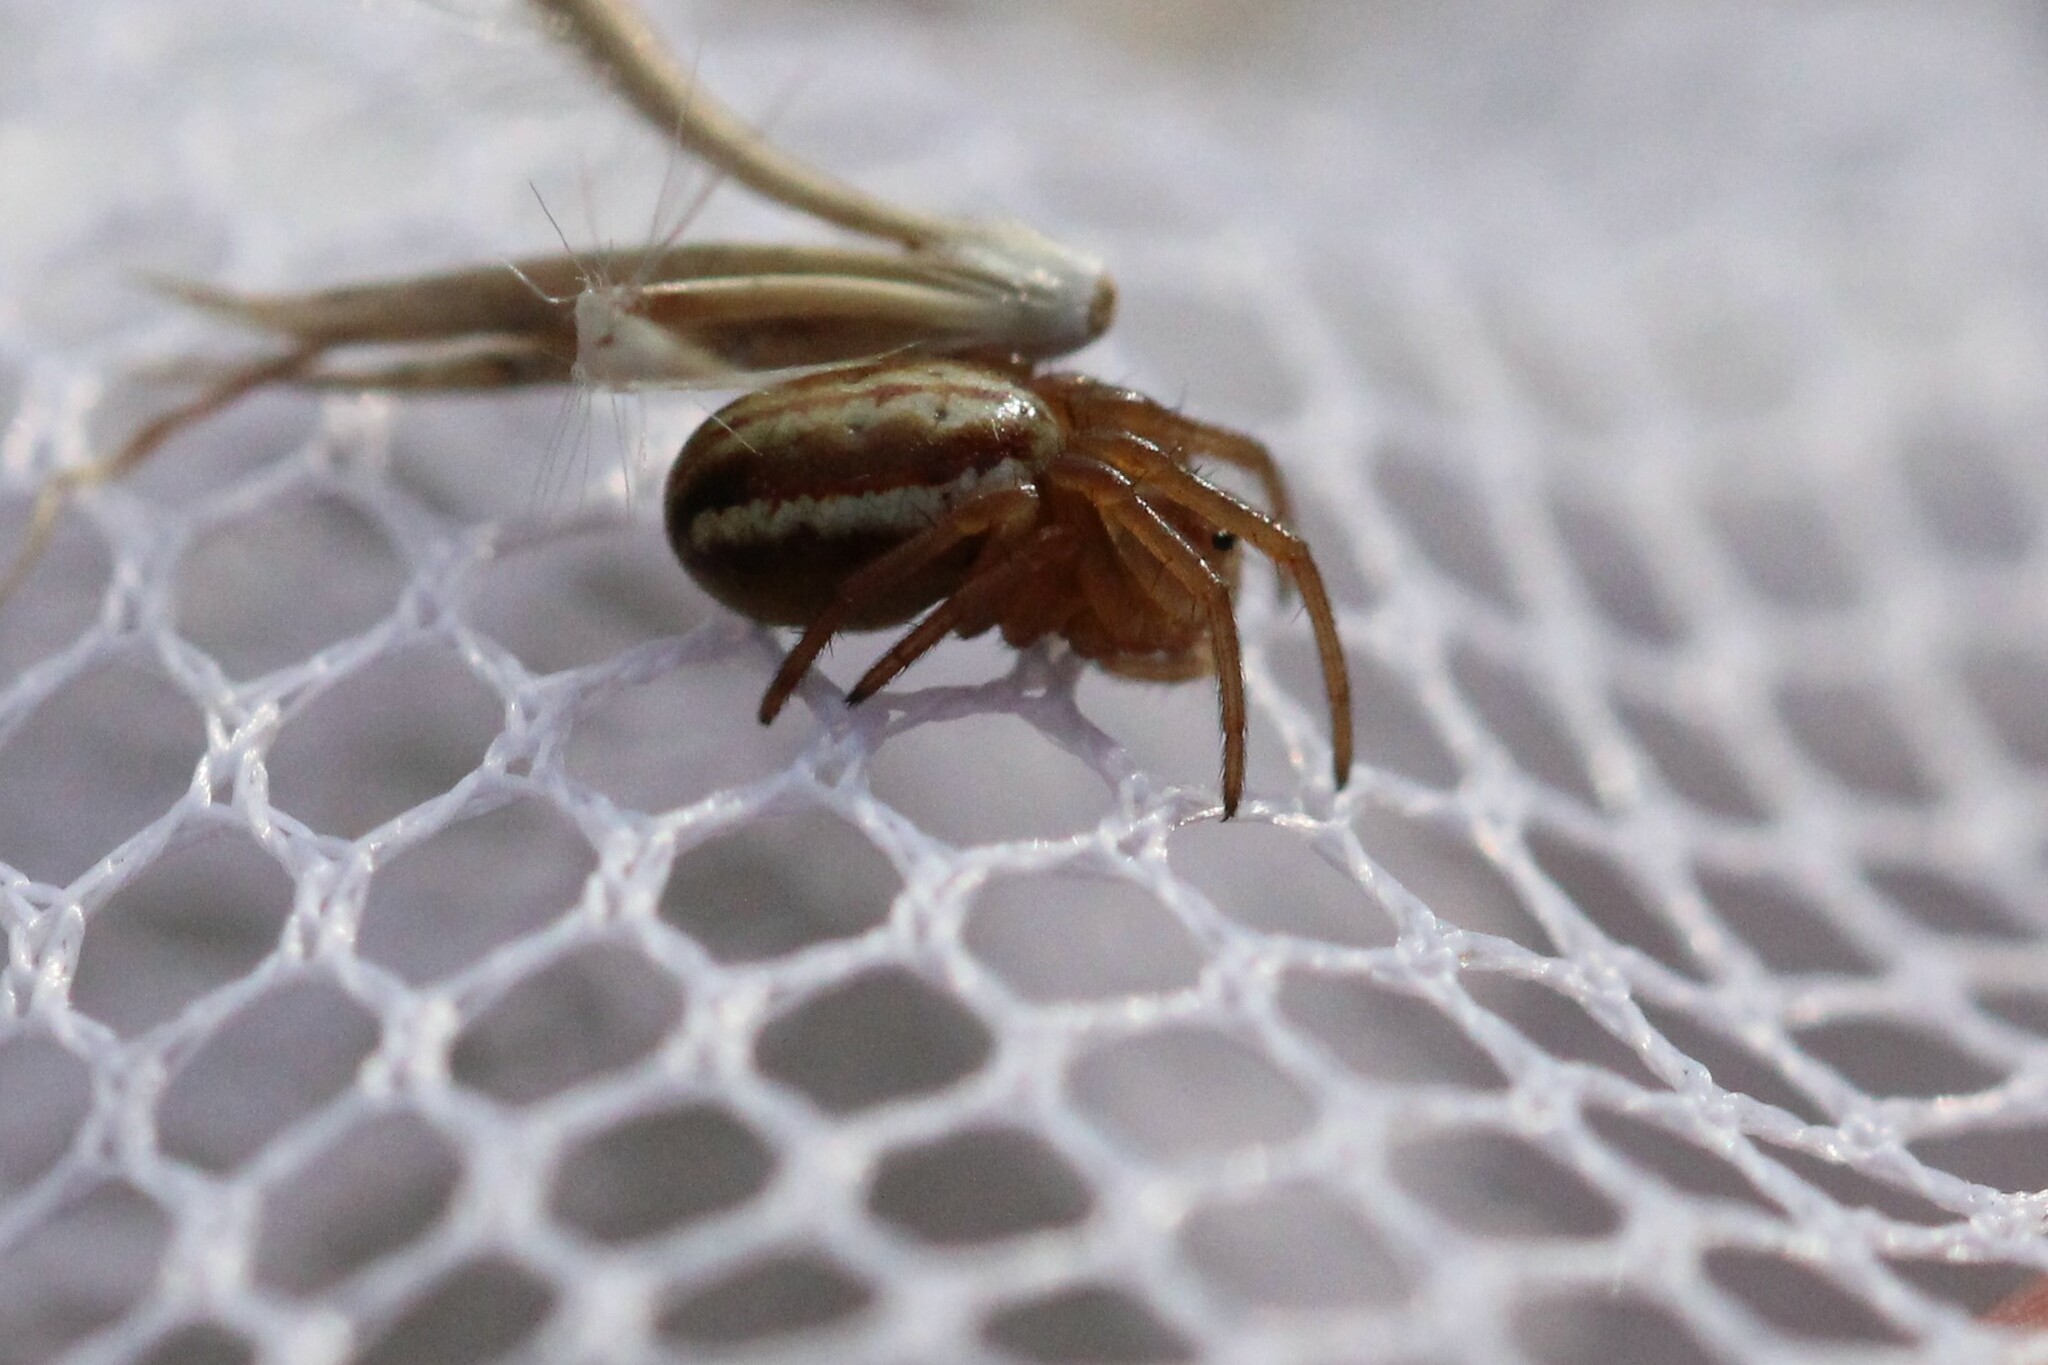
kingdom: Animalia
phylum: Arthropoda
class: Arachnida
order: Araneae
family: Araneidae
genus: Araneus
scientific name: Araneus pratensis
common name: Openfield orbweaver
